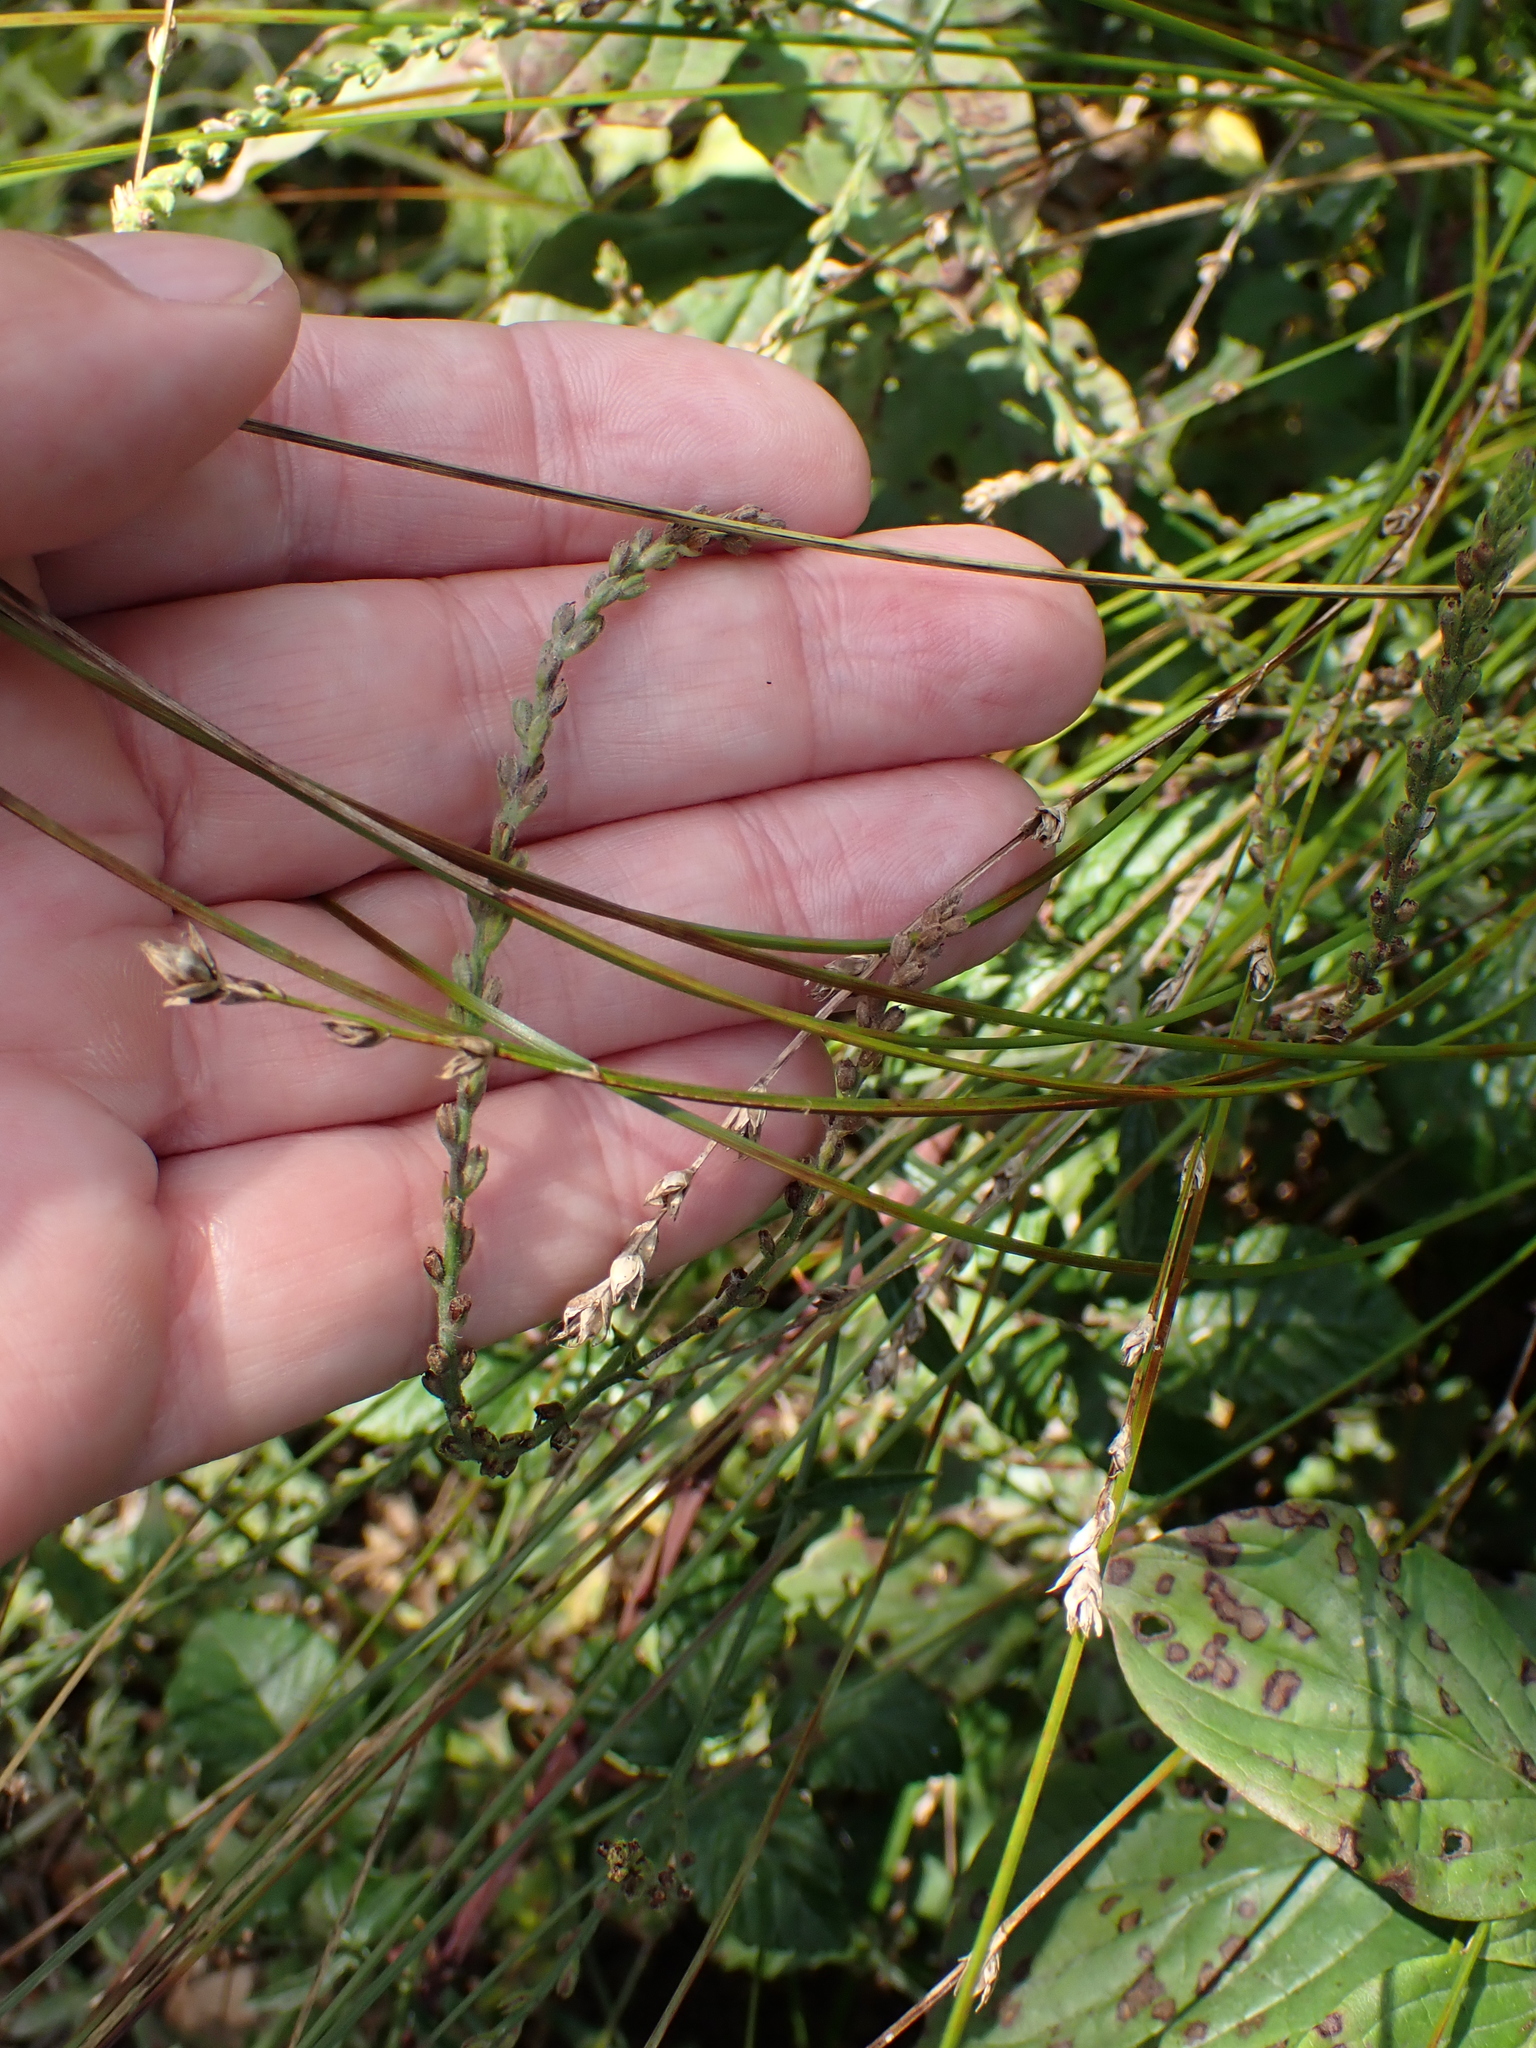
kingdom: Plantae
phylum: Tracheophyta
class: Liliopsida
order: Poales
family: Cyperaceae
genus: Carex
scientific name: Carex divulsa
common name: Grassland sedge
